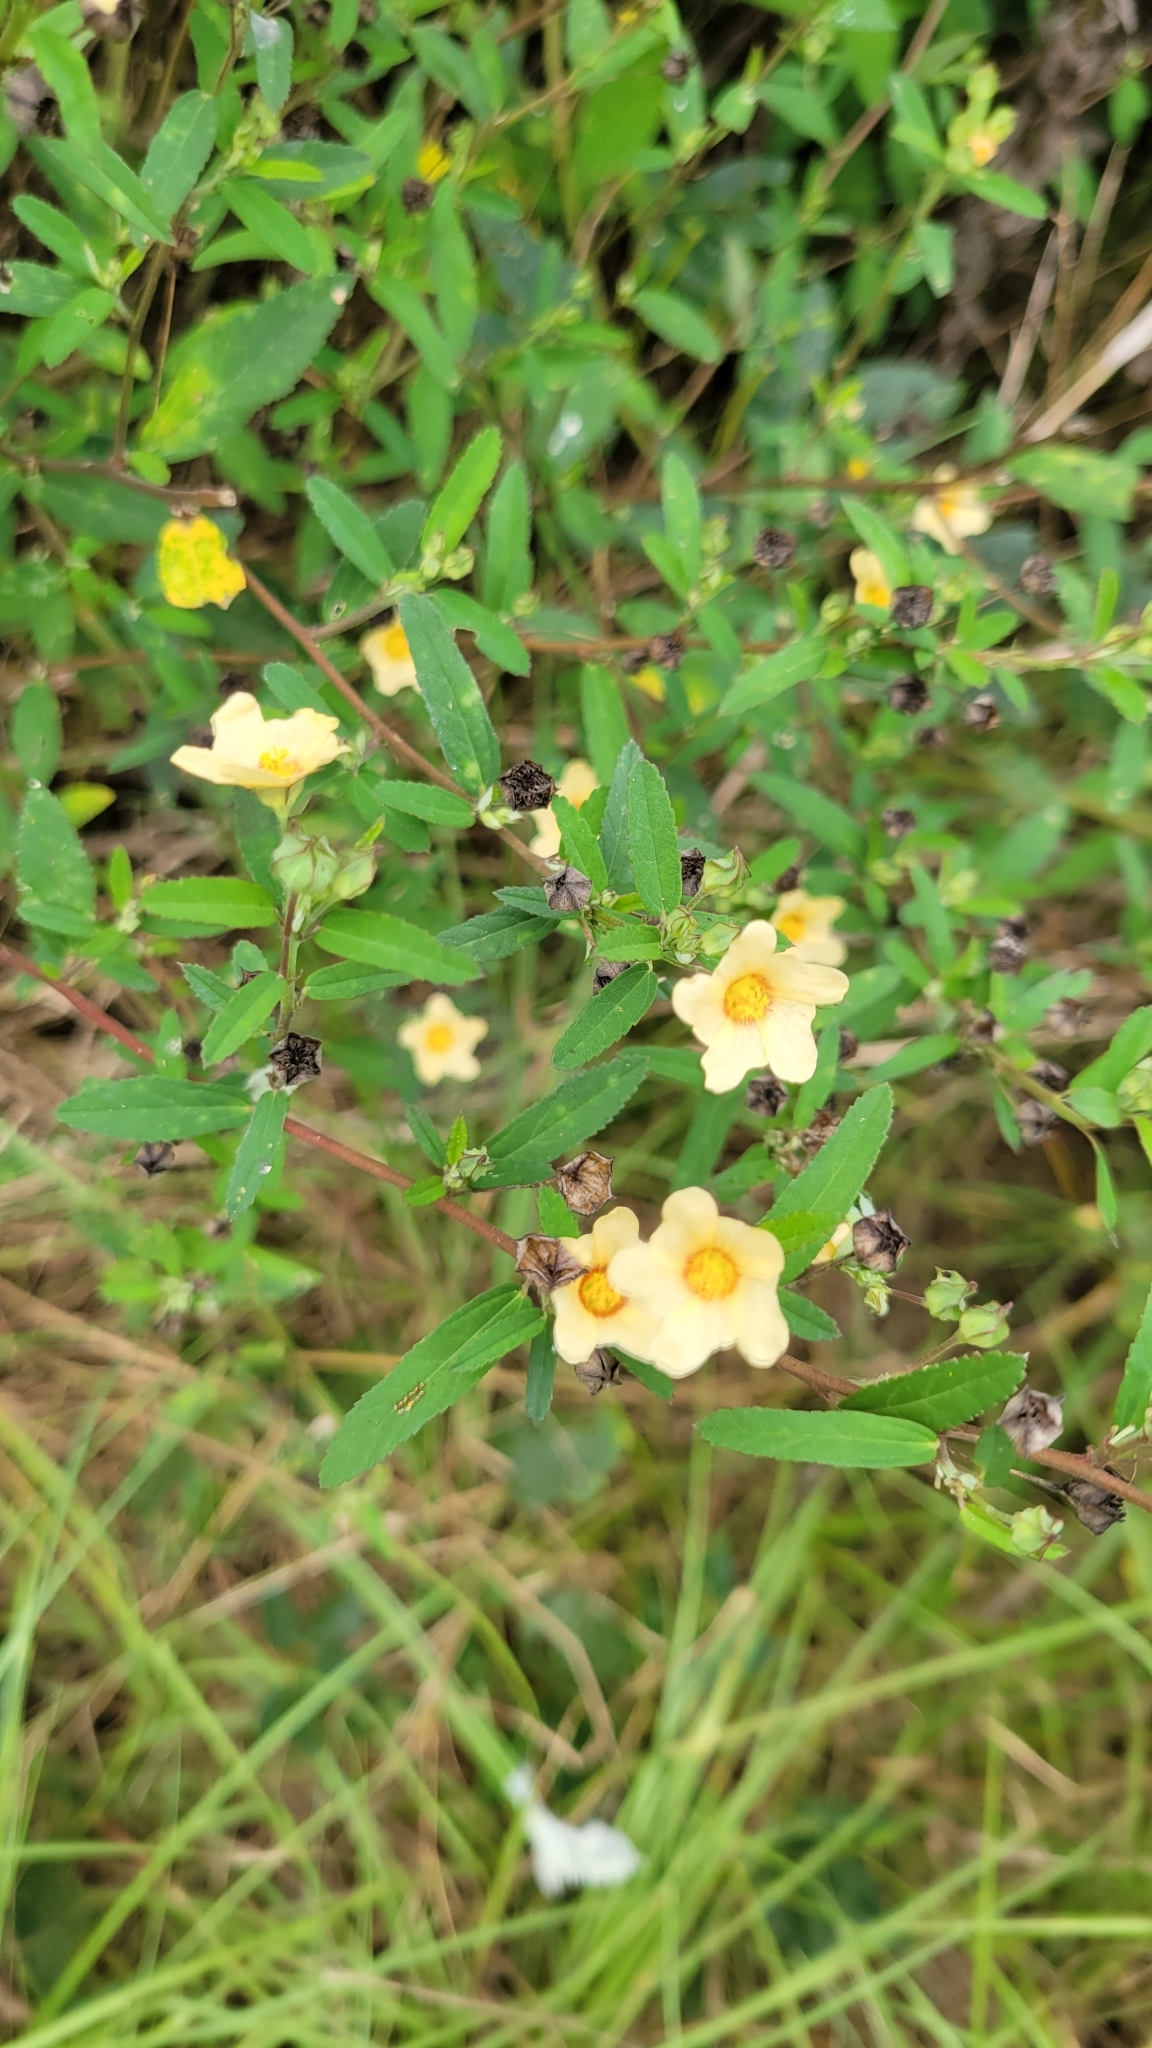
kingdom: Plantae
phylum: Tracheophyta
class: Magnoliopsida
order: Malvales
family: Malvaceae
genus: Sida
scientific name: Sida rhombifolia
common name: Queensland-hemp
